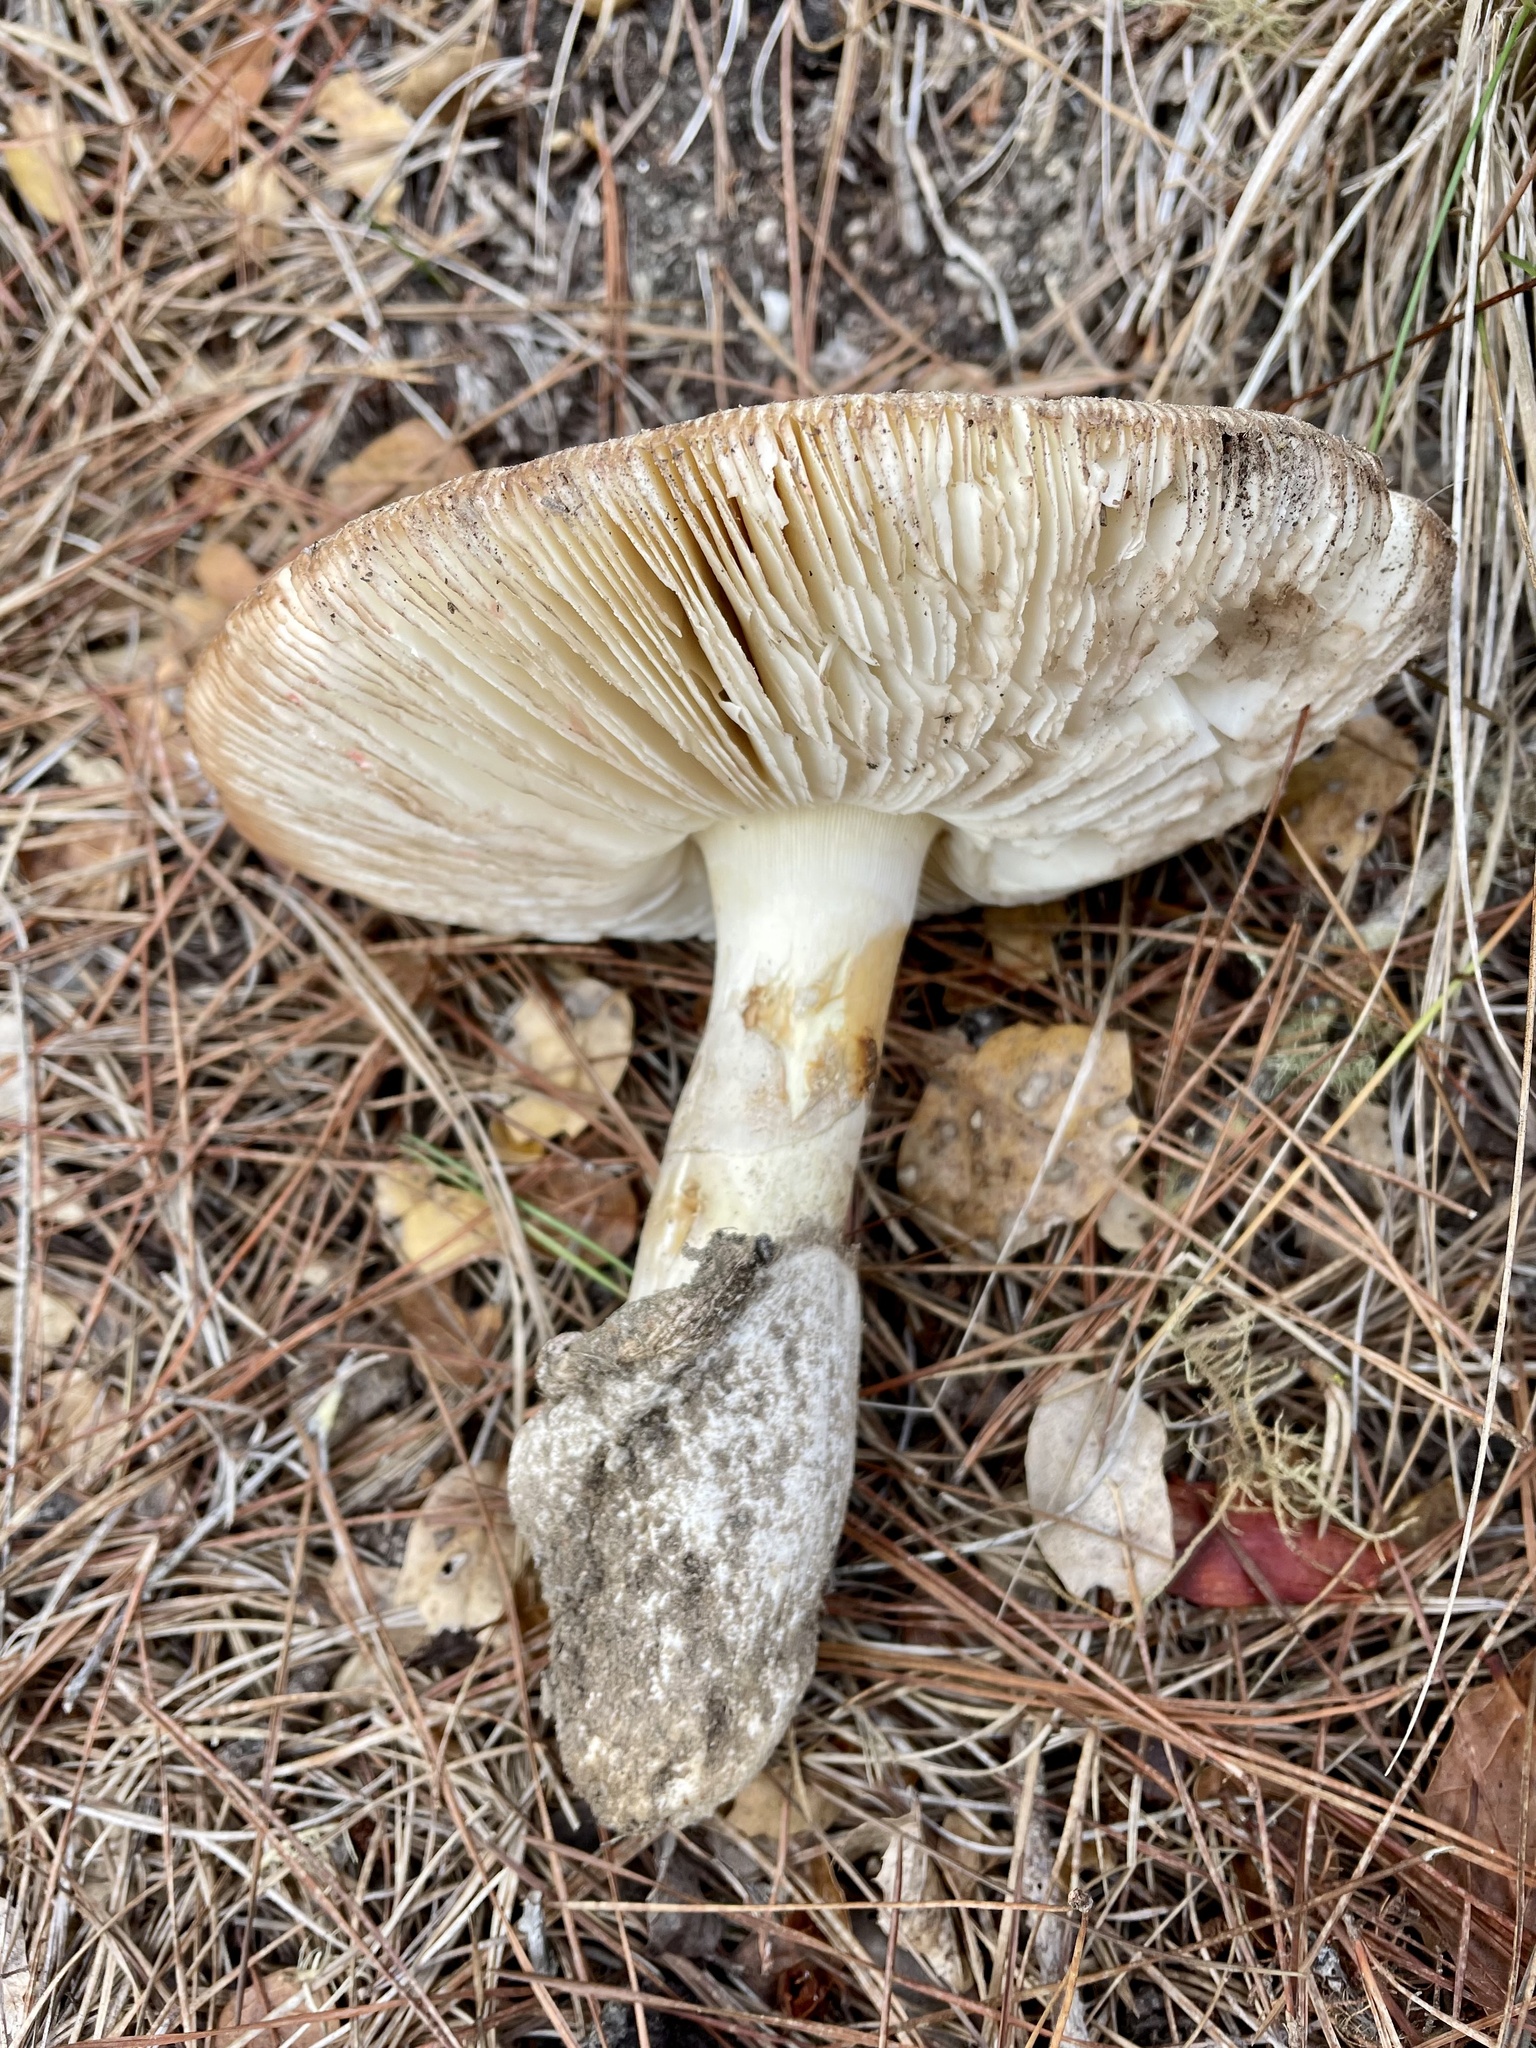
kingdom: Fungi
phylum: Basidiomycota
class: Agaricomycetes
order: Agaricales
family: Amanitaceae
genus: Amanita
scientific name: Amanita calyptroderma
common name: Coccora
